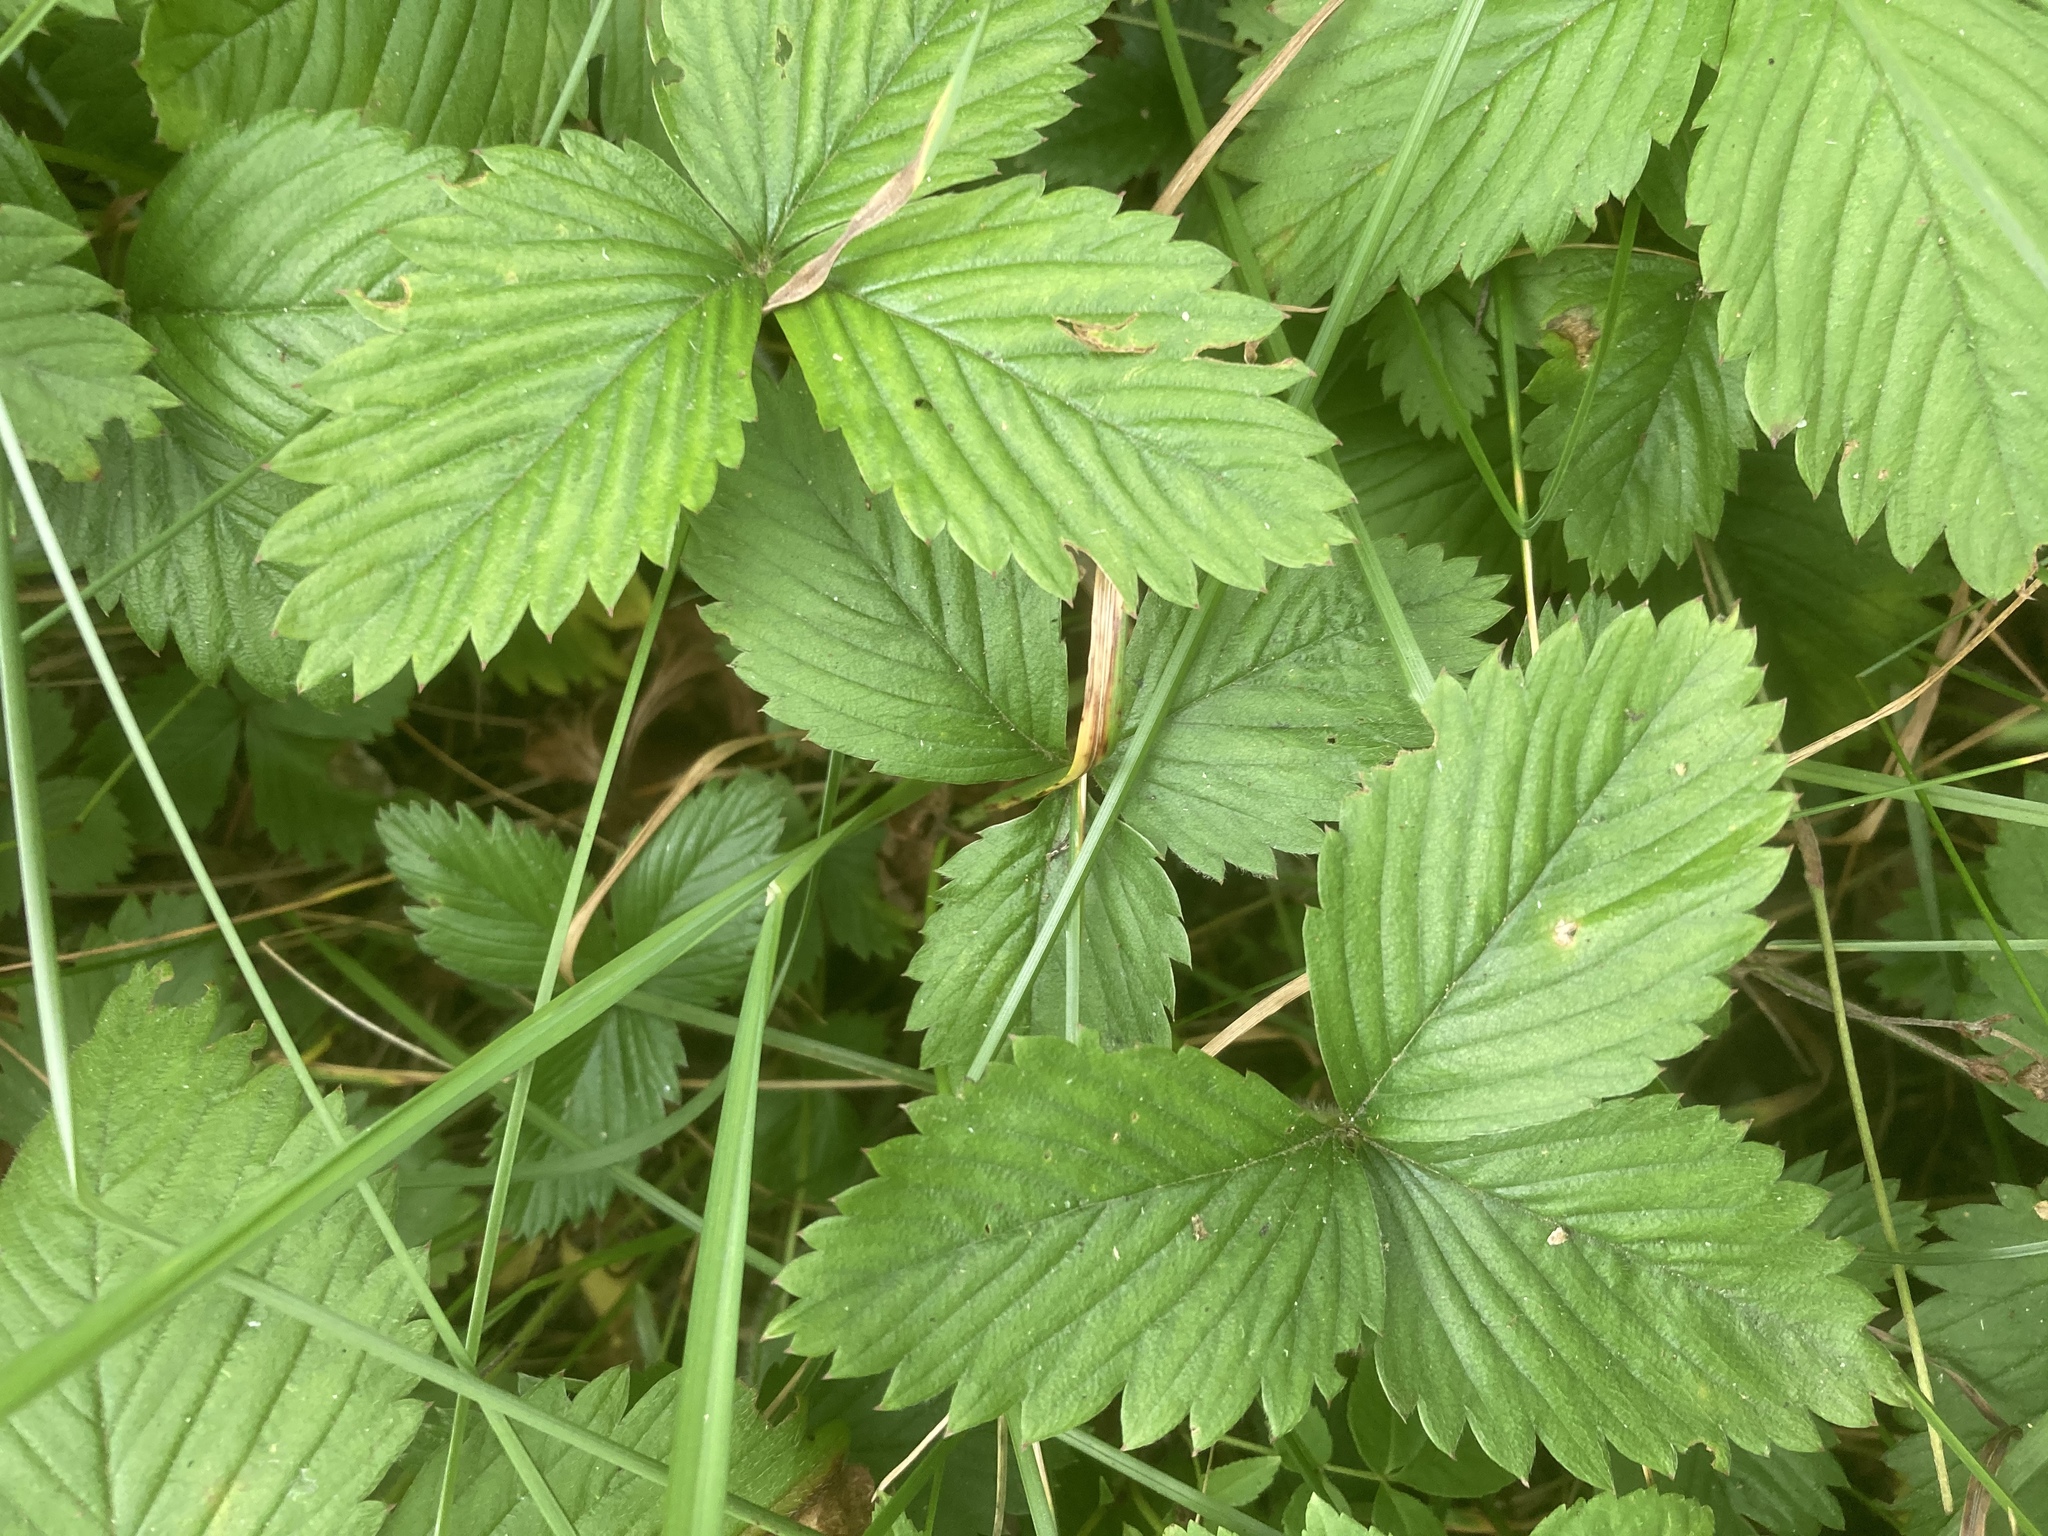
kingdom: Plantae
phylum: Tracheophyta
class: Magnoliopsida
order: Rosales
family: Rosaceae
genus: Fragaria
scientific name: Fragaria vesca
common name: Wild strawberry
